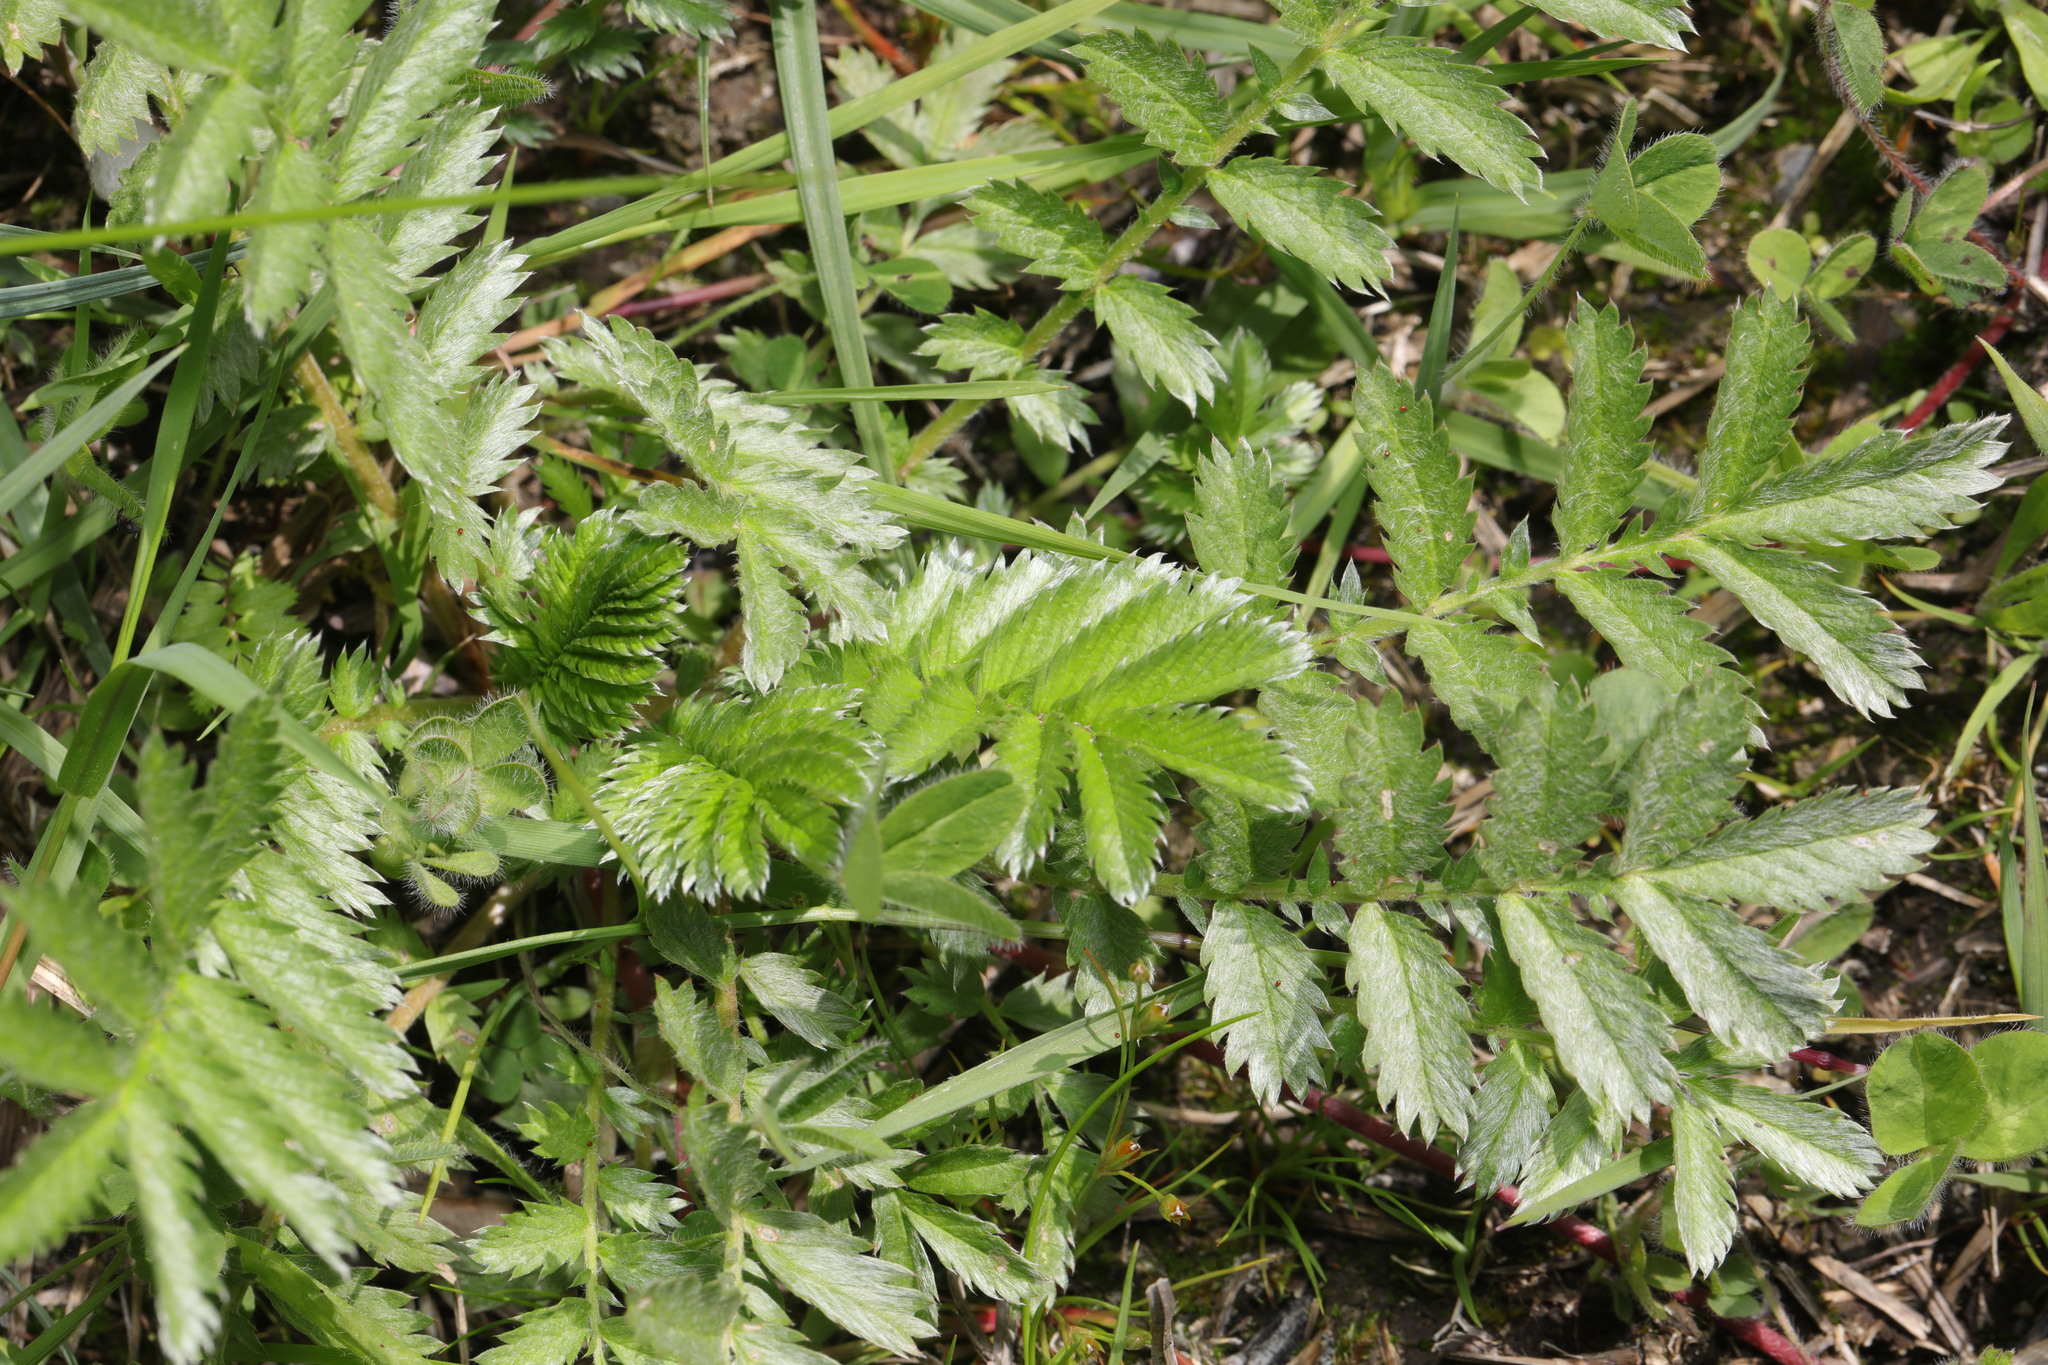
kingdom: Plantae
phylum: Tracheophyta
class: Magnoliopsida
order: Rosales
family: Rosaceae
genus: Argentina
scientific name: Argentina anserina
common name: Common silverweed
